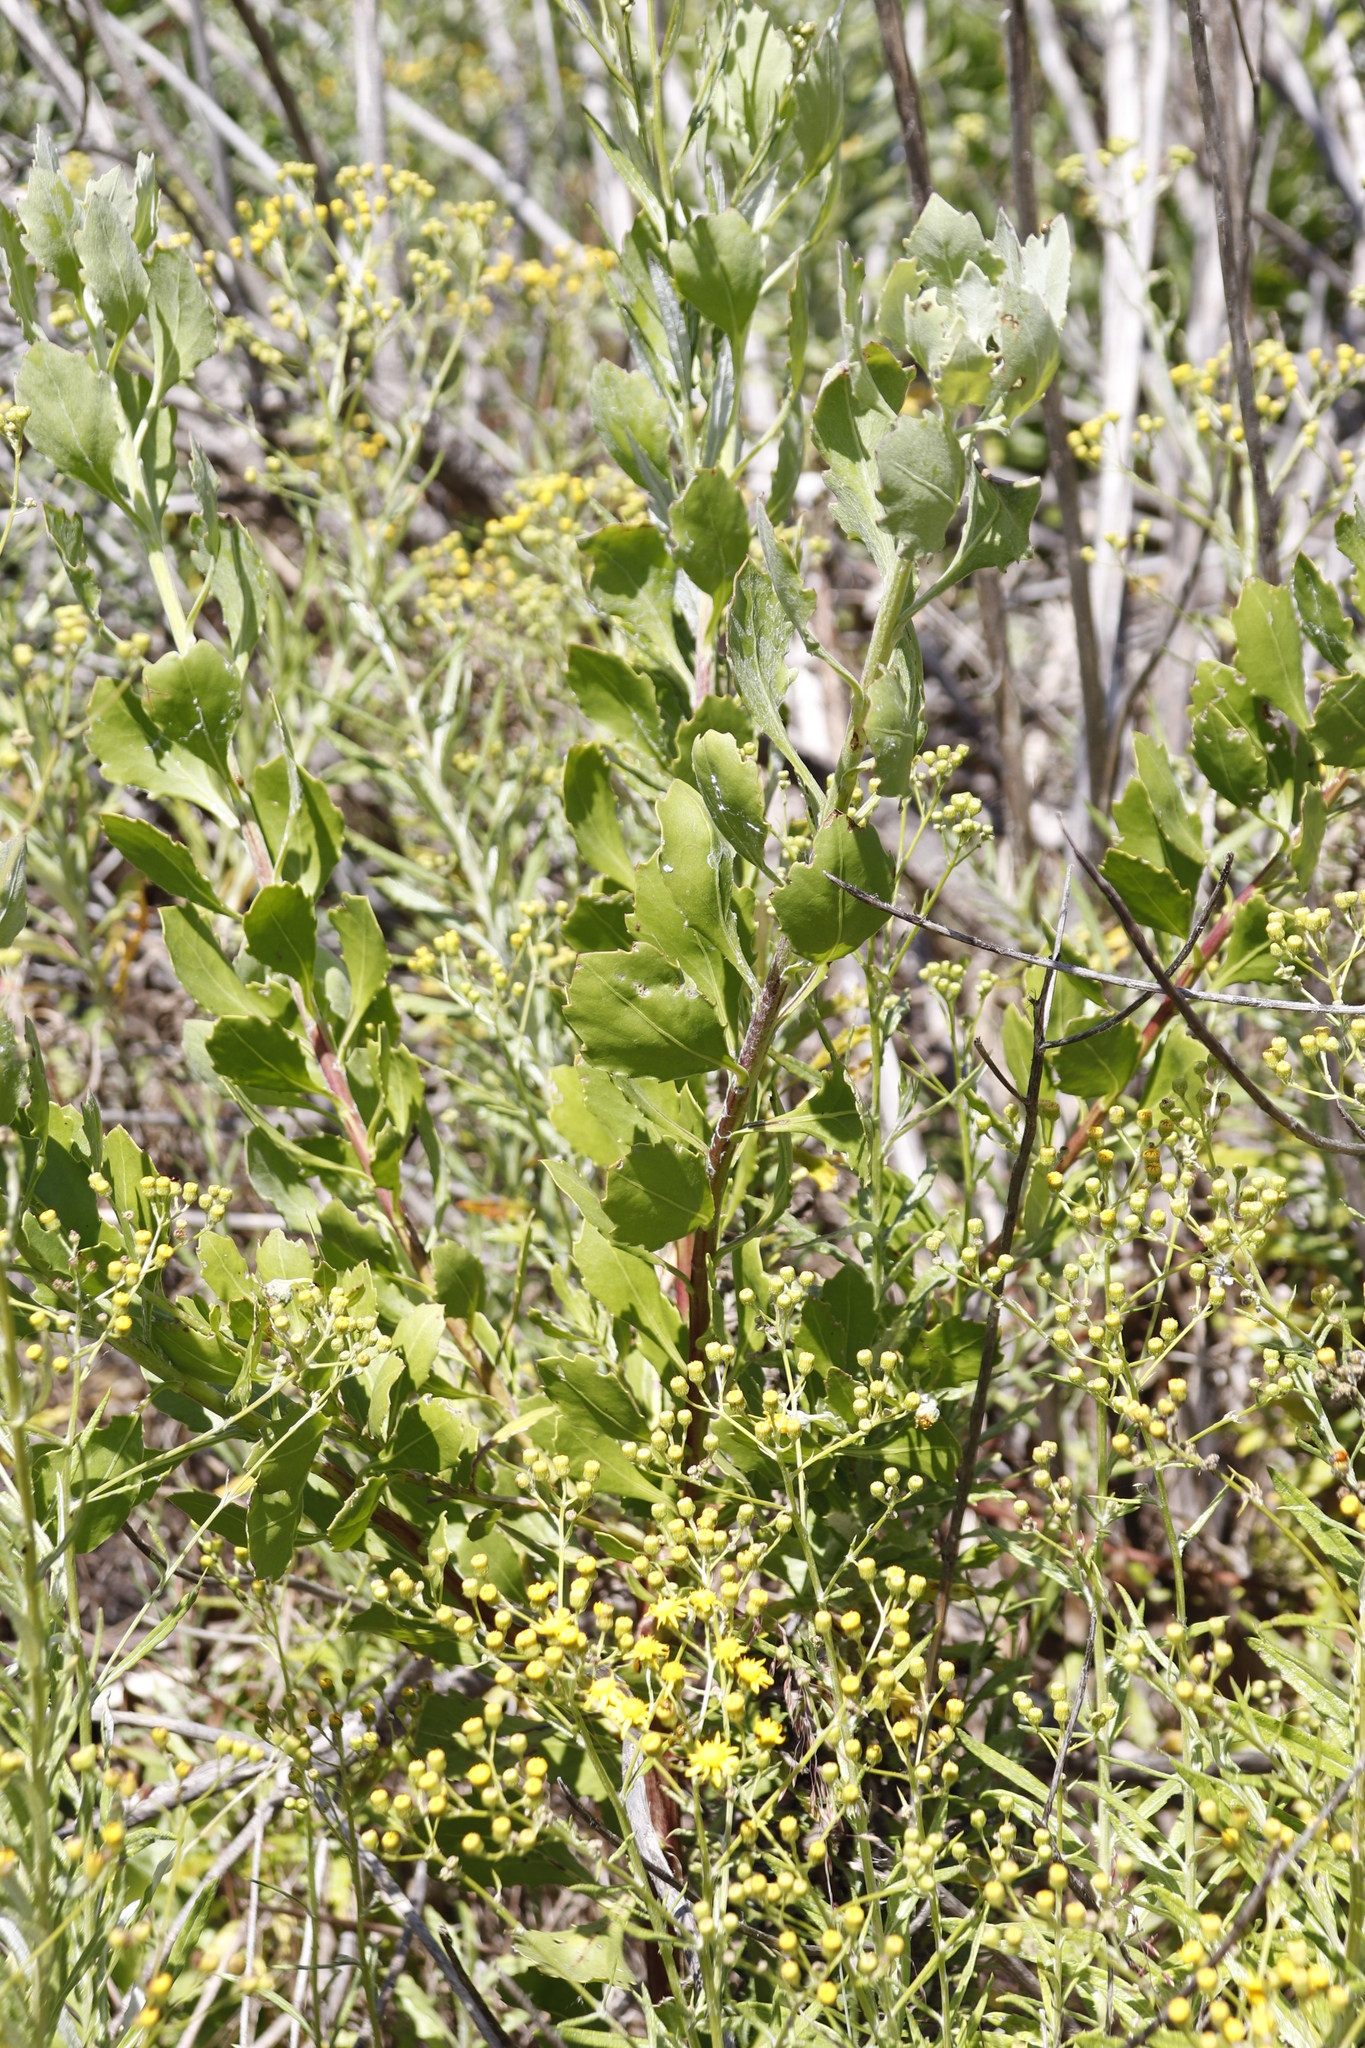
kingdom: Plantae
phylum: Tracheophyta
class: Magnoliopsida
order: Asterales
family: Asteraceae
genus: Osteospermum
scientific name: Osteospermum moniliferum
